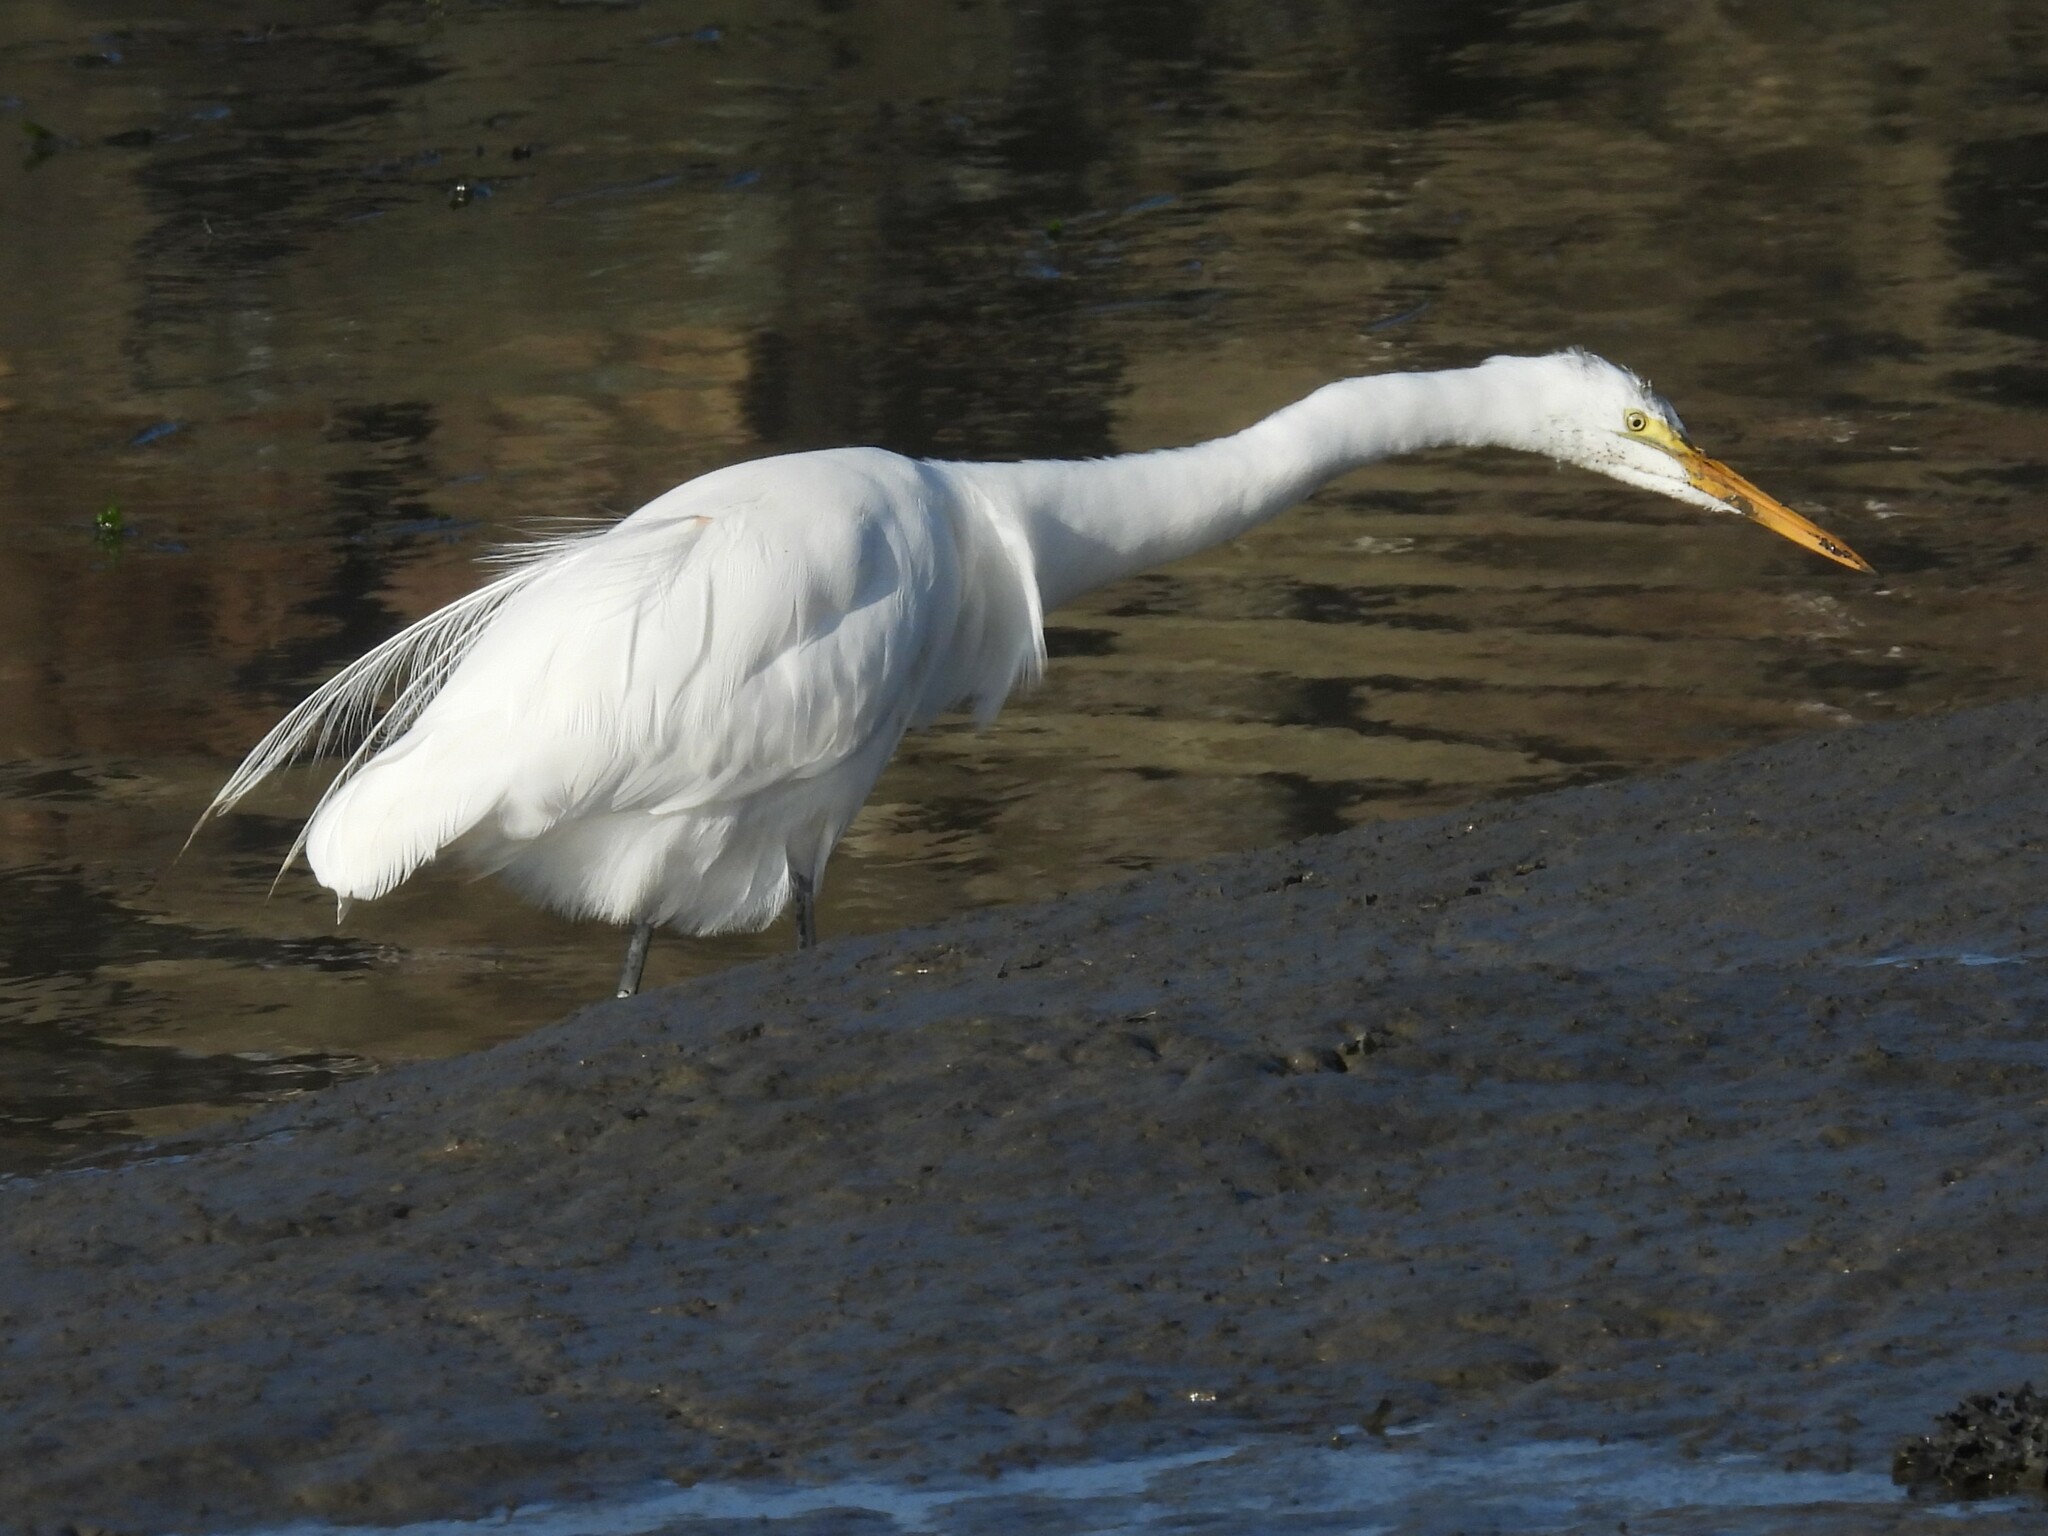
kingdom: Animalia
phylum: Chordata
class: Aves
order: Pelecaniformes
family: Ardeidae
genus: Ardea
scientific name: Ardea alba
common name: Great egret
